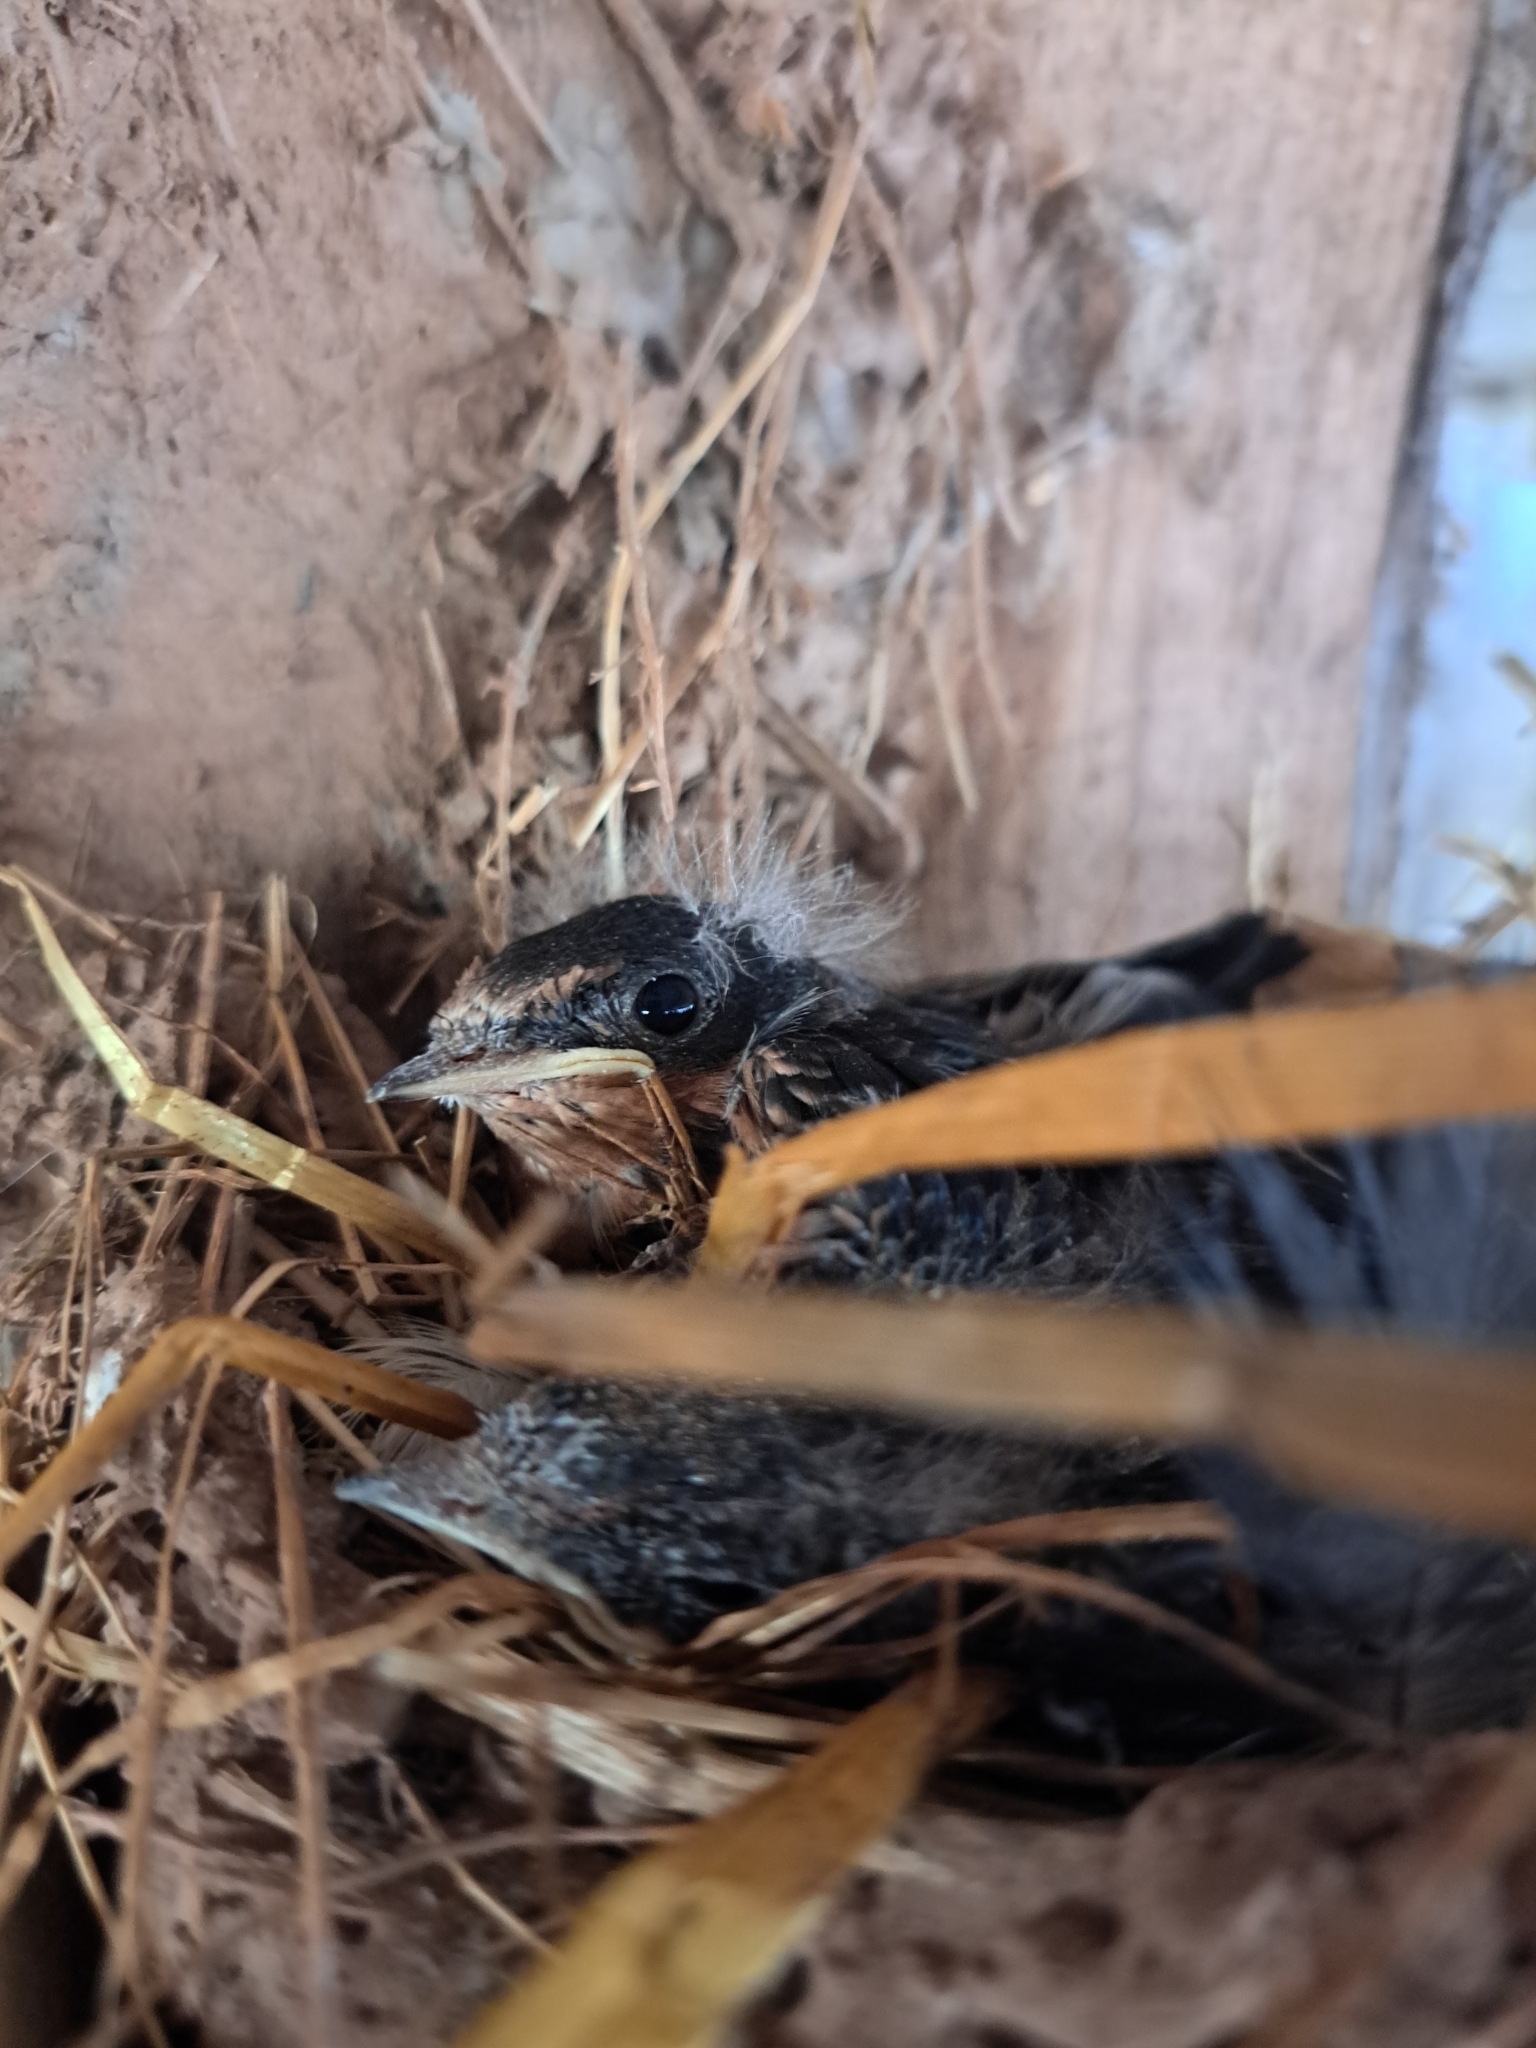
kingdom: Animalia
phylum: Chordata
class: Aves
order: Passeriformes
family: Hirundinidae
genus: Hirundo
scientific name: Hirundo rustica
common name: Barn swallow
